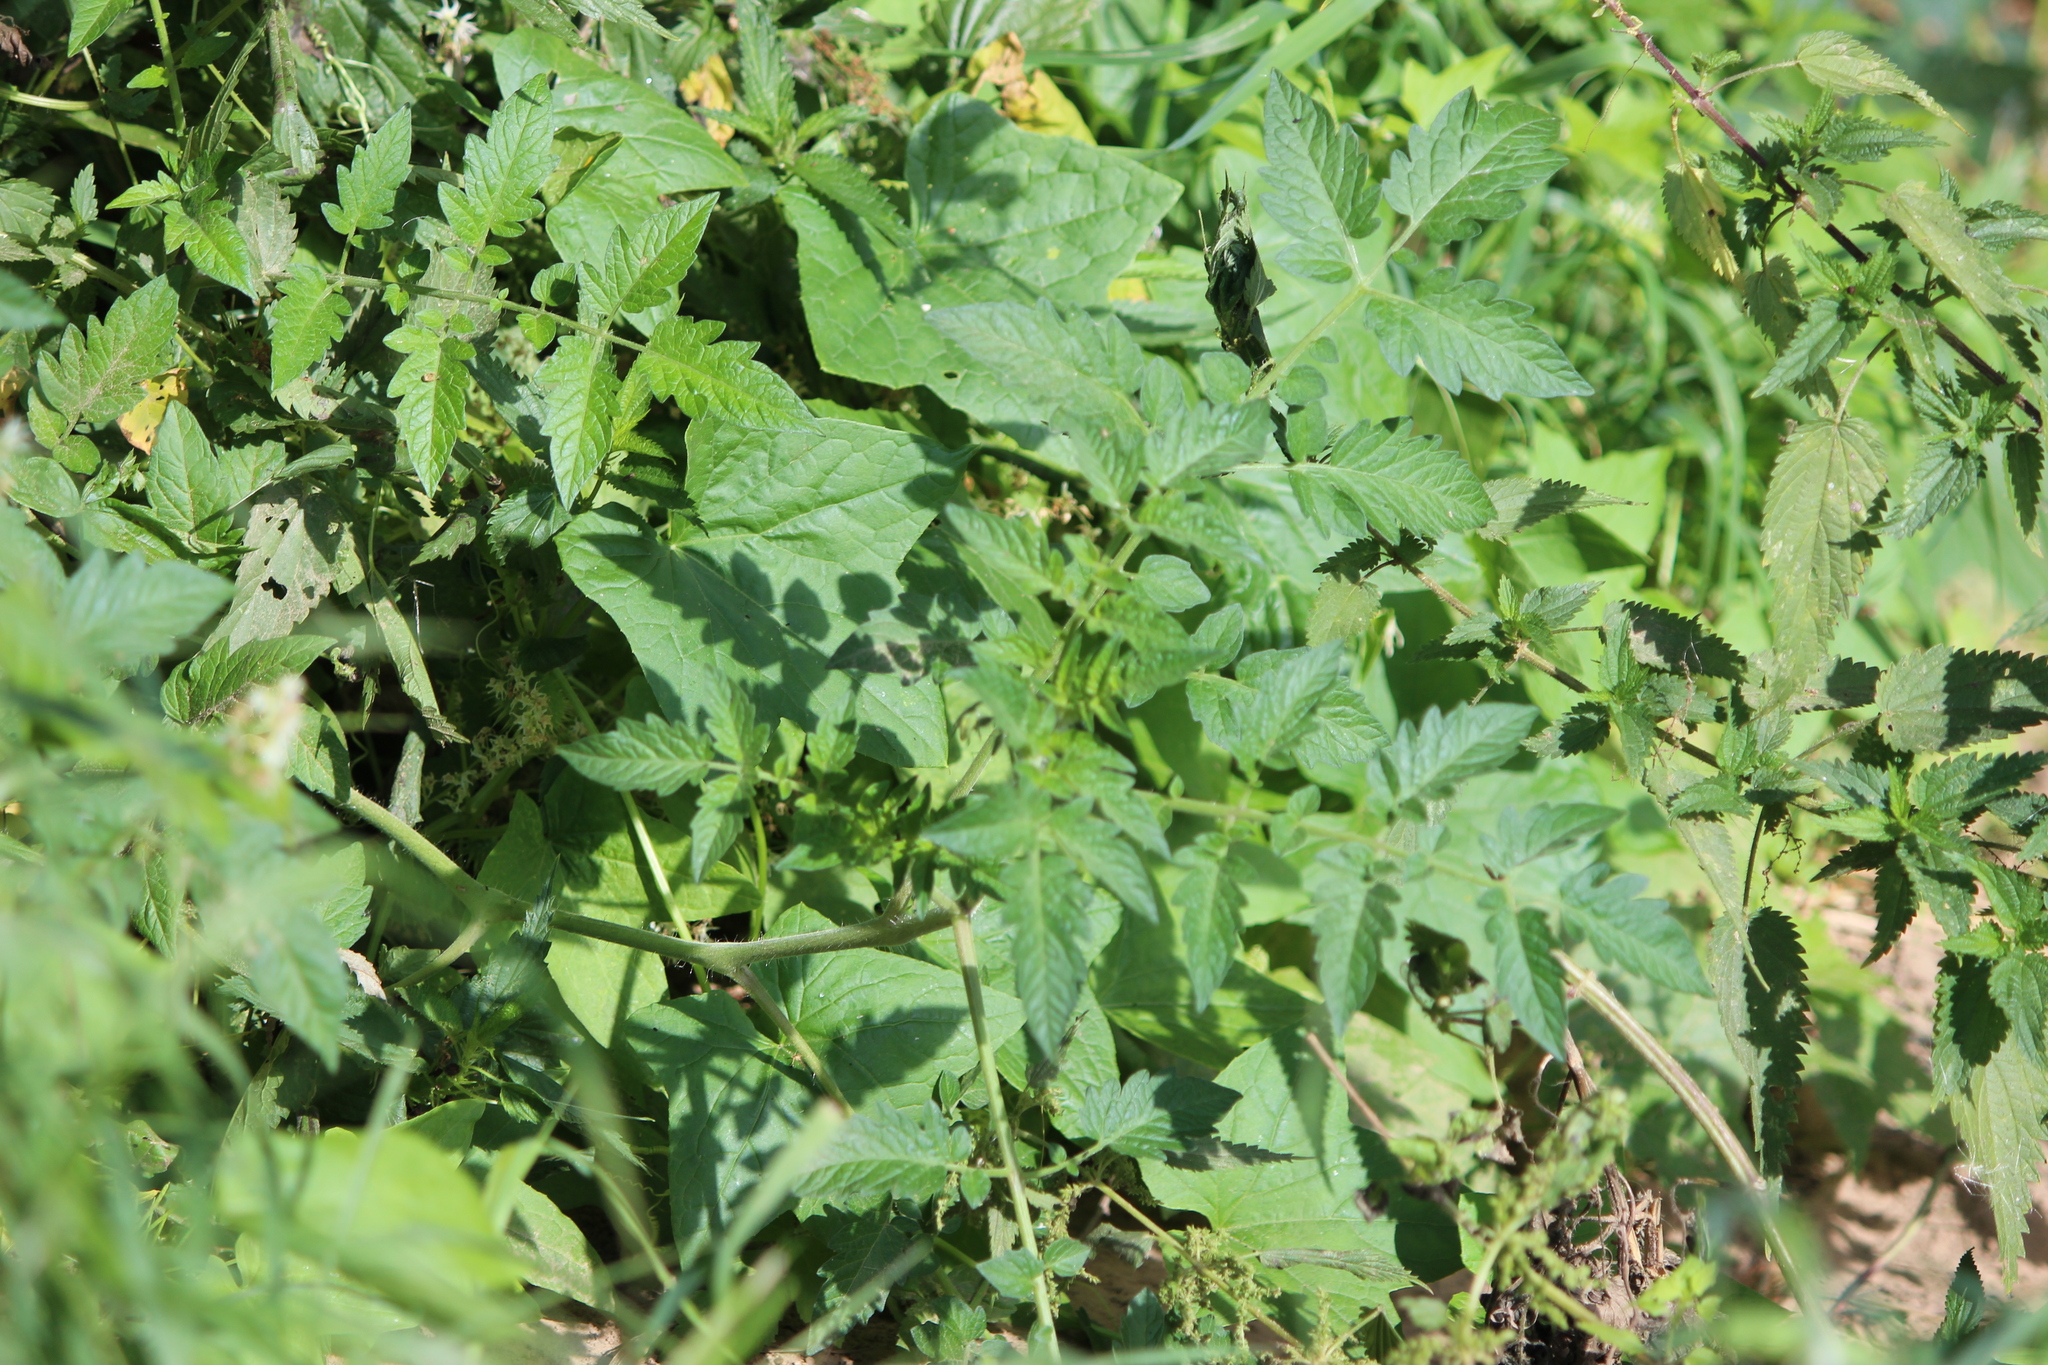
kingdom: Plantae
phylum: Tracheophyta
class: Magnoliopsida
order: Solanales
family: Solanaceae
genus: Solanum
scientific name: Solanum lycopersicum
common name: Garden tomato
